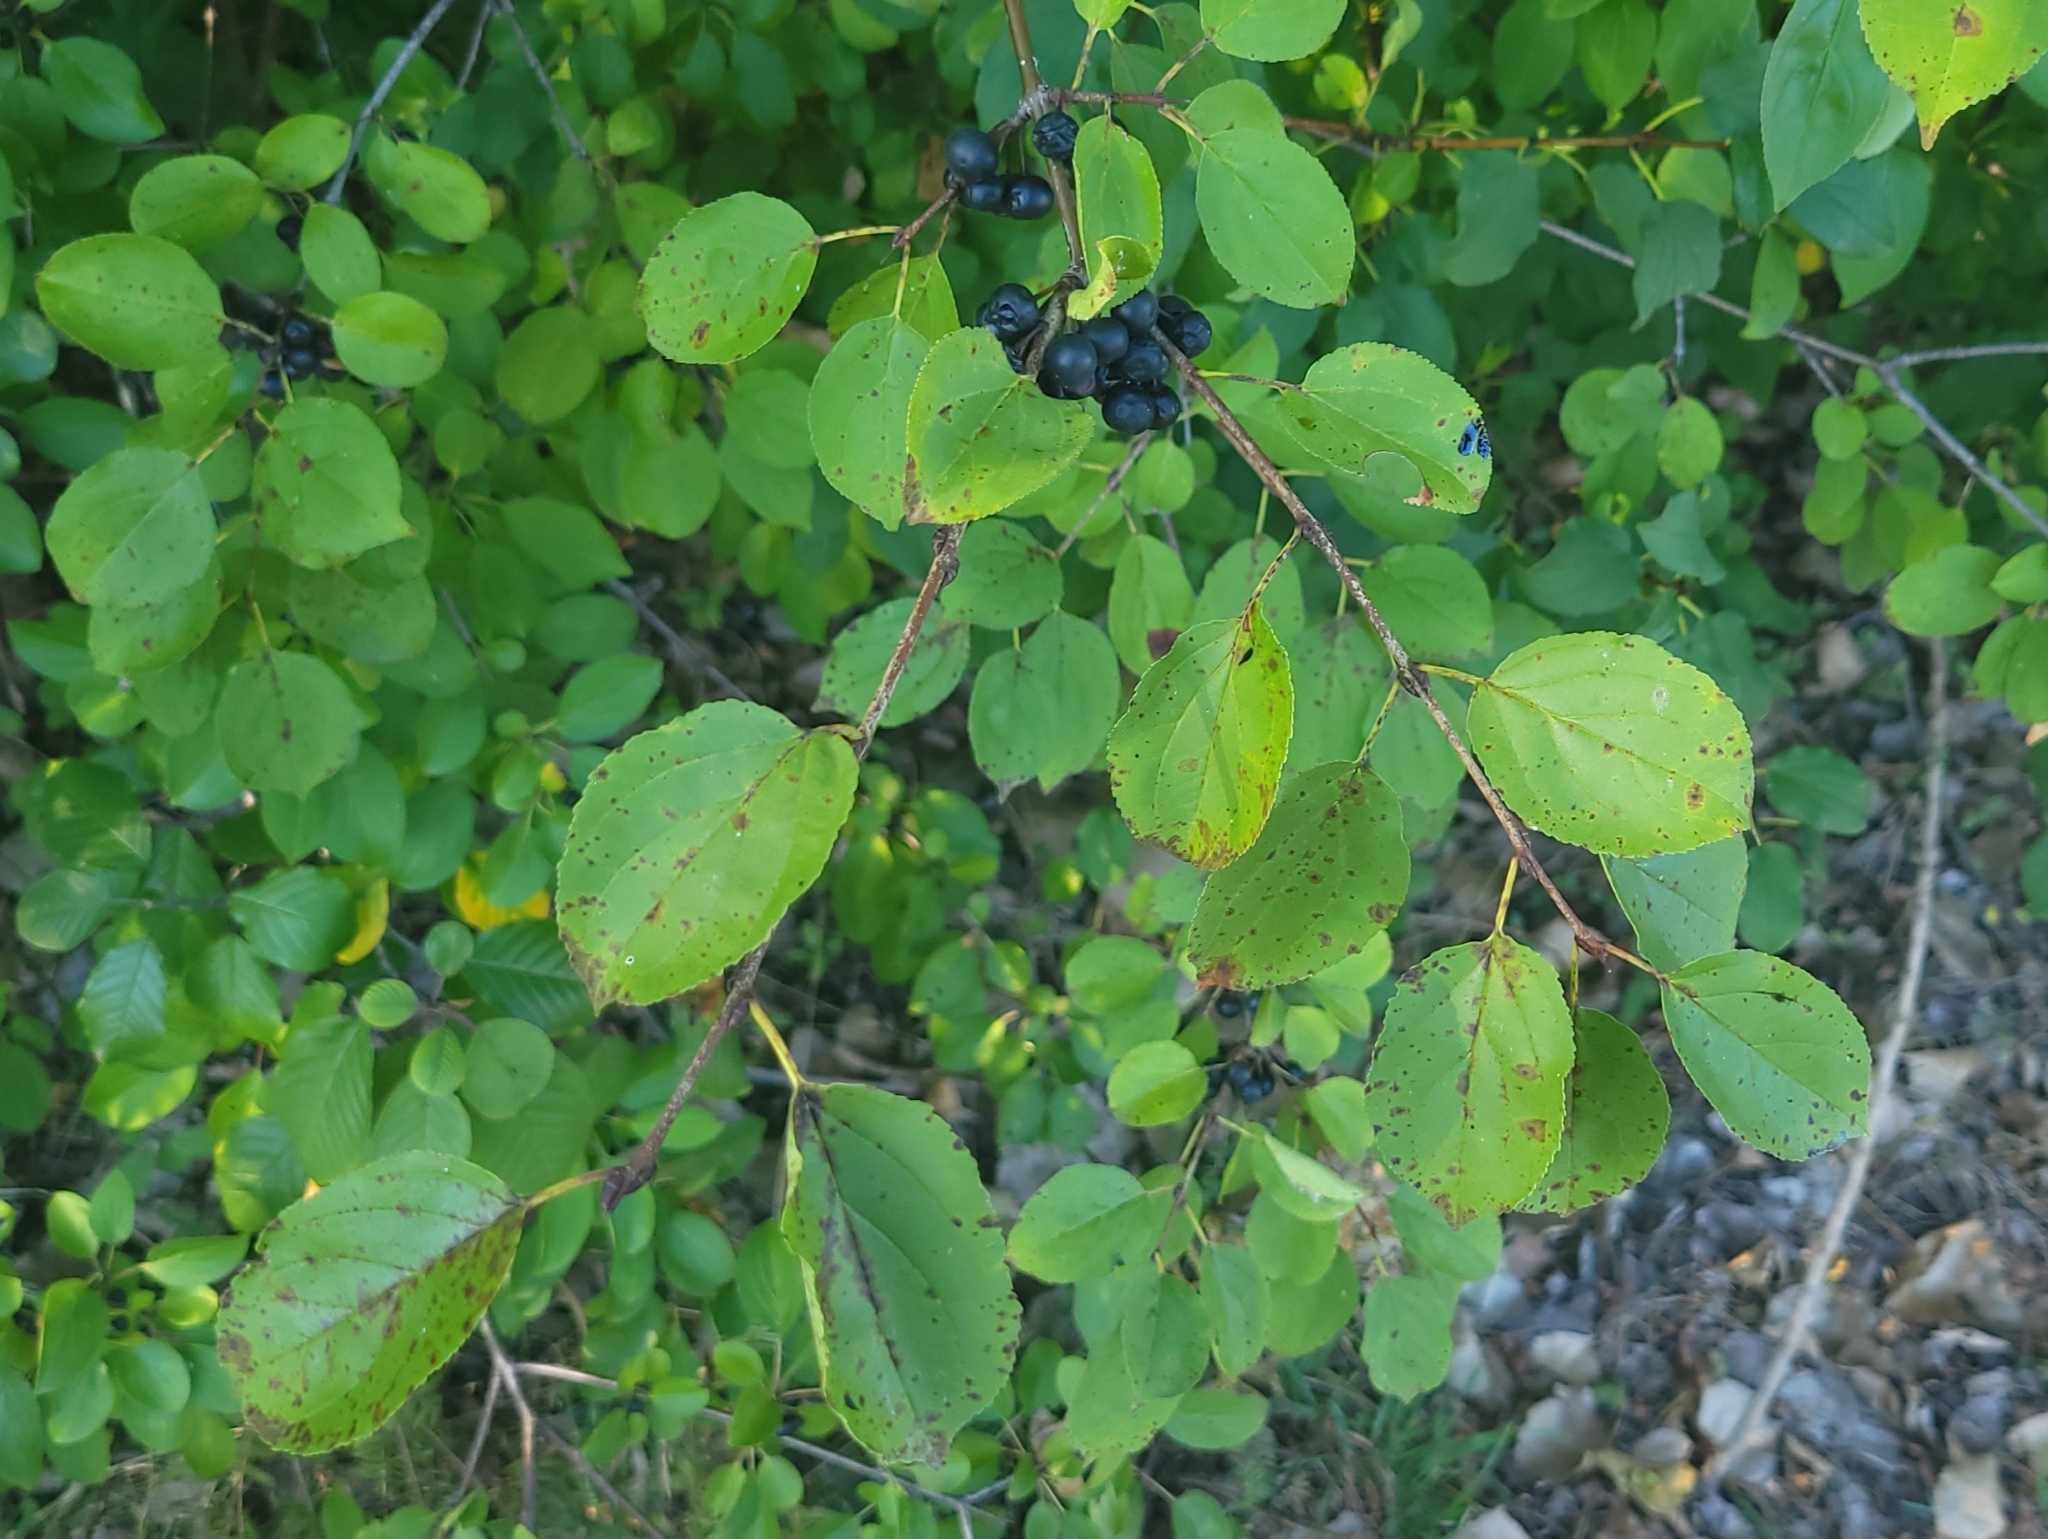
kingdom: Plantae
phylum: Tracheophyta
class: Magnoliopsida
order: Rosales
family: Rhamnaceae
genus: Rhamnus
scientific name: Rhamnus cathartica
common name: Common buckthorn
